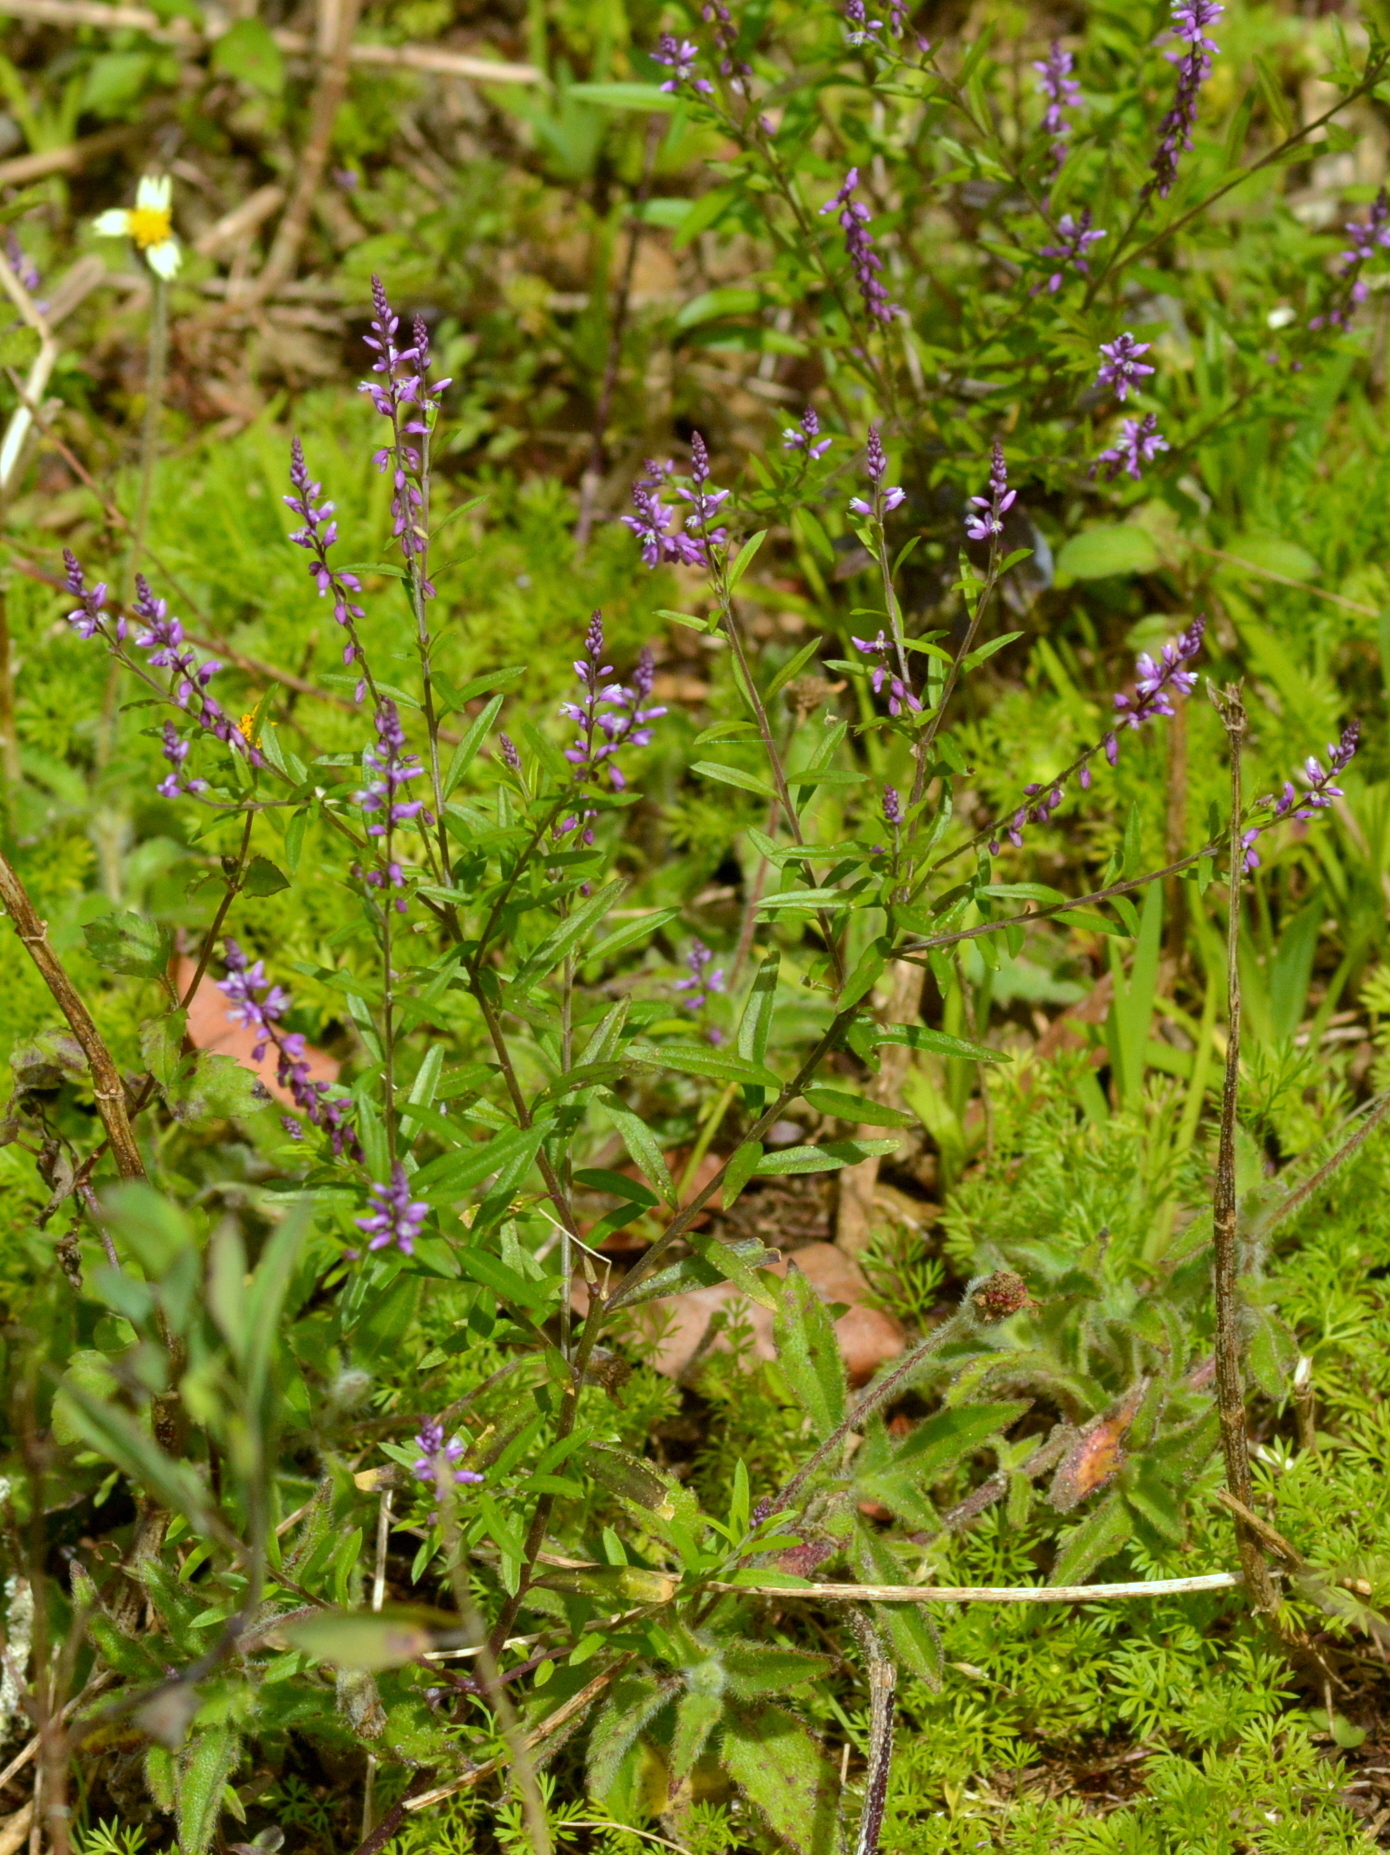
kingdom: Plantae
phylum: Tracheophyta
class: Magnoliopsida
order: Fabales
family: Polygalaceae
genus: Polygala
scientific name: Polygala paniculata
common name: Orosne
